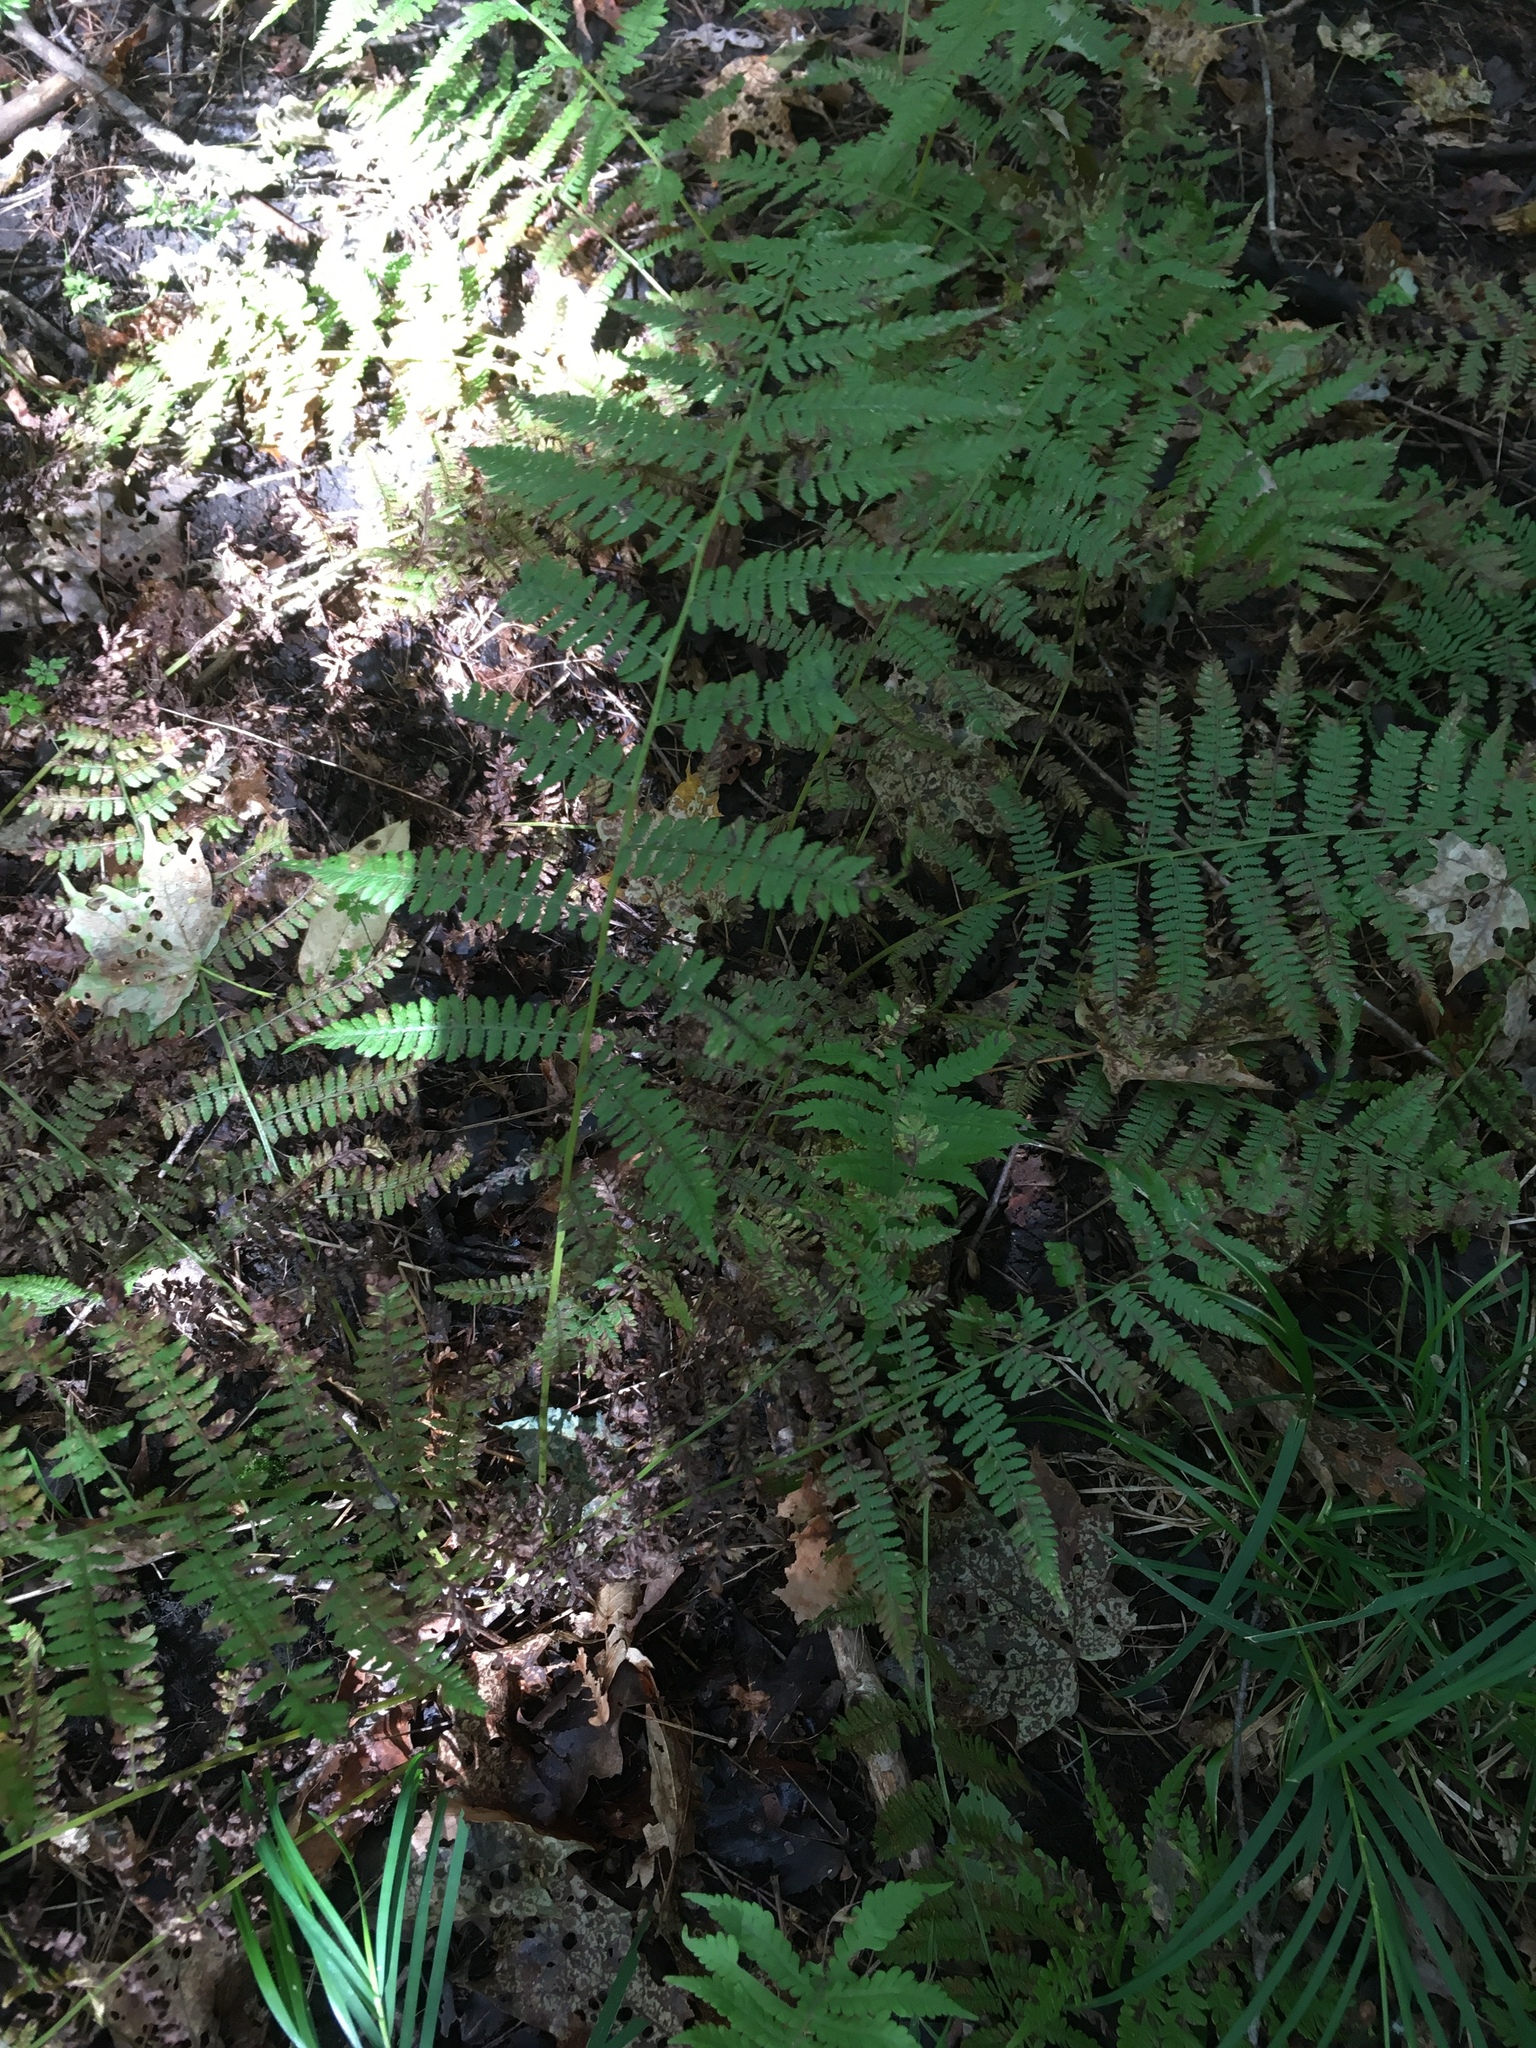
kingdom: Plantae
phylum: Tracheophyta
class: Polypodiopsida
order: Polypodiales
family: Athyriaceae
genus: Athyrium
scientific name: Athyrium angustum
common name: Northern lady fern
